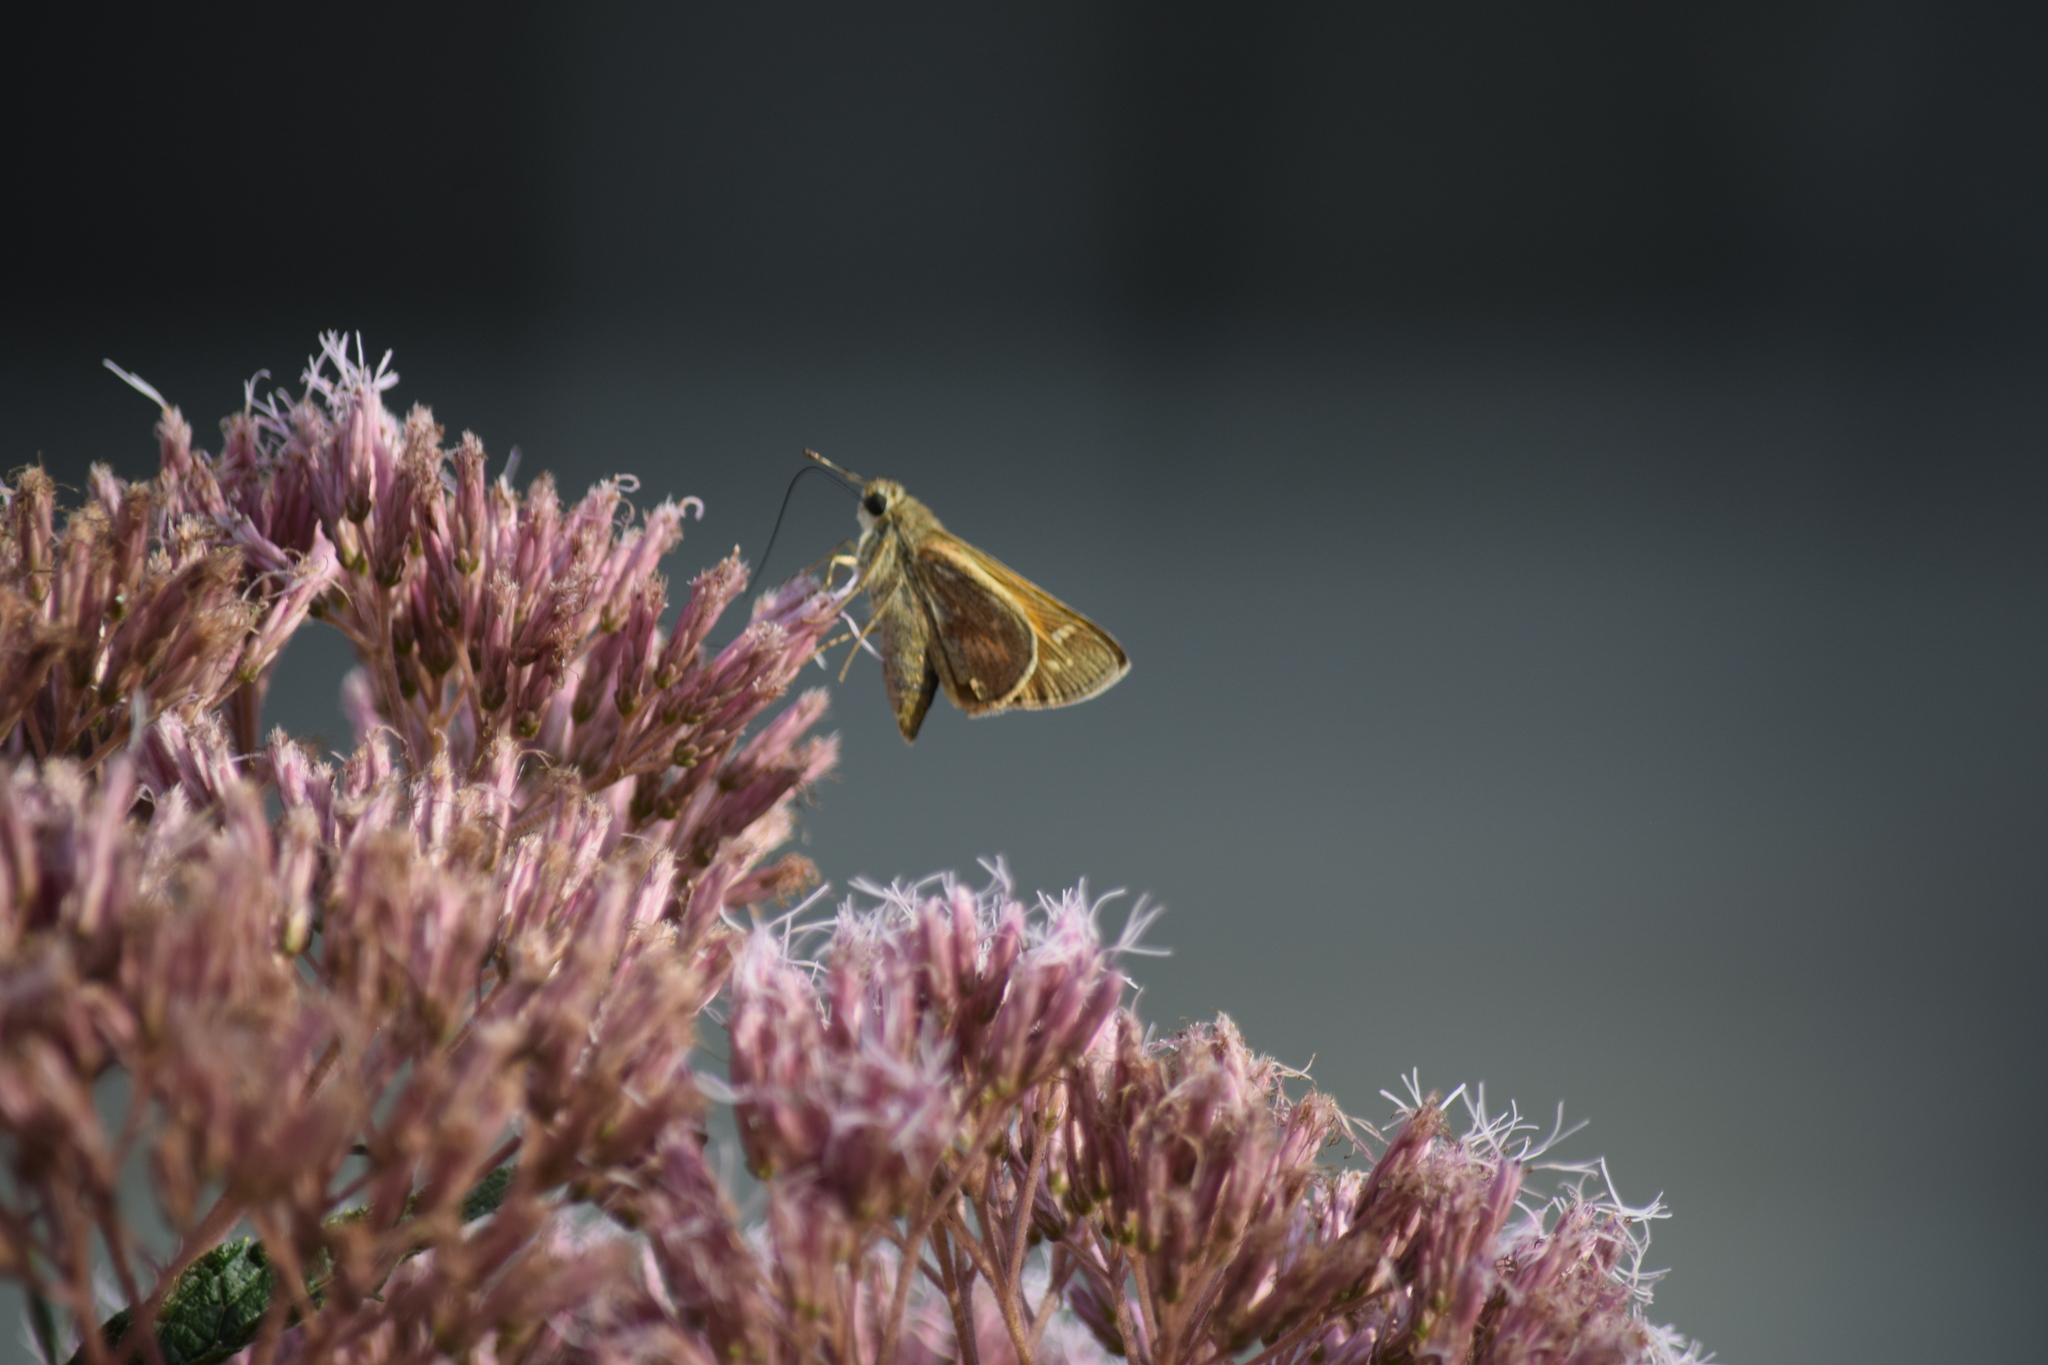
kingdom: Animalia
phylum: Arthropoda
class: Insecta
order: Lepidoptera
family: Hesperiidae
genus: Atalopedes
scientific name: Atalopedes
